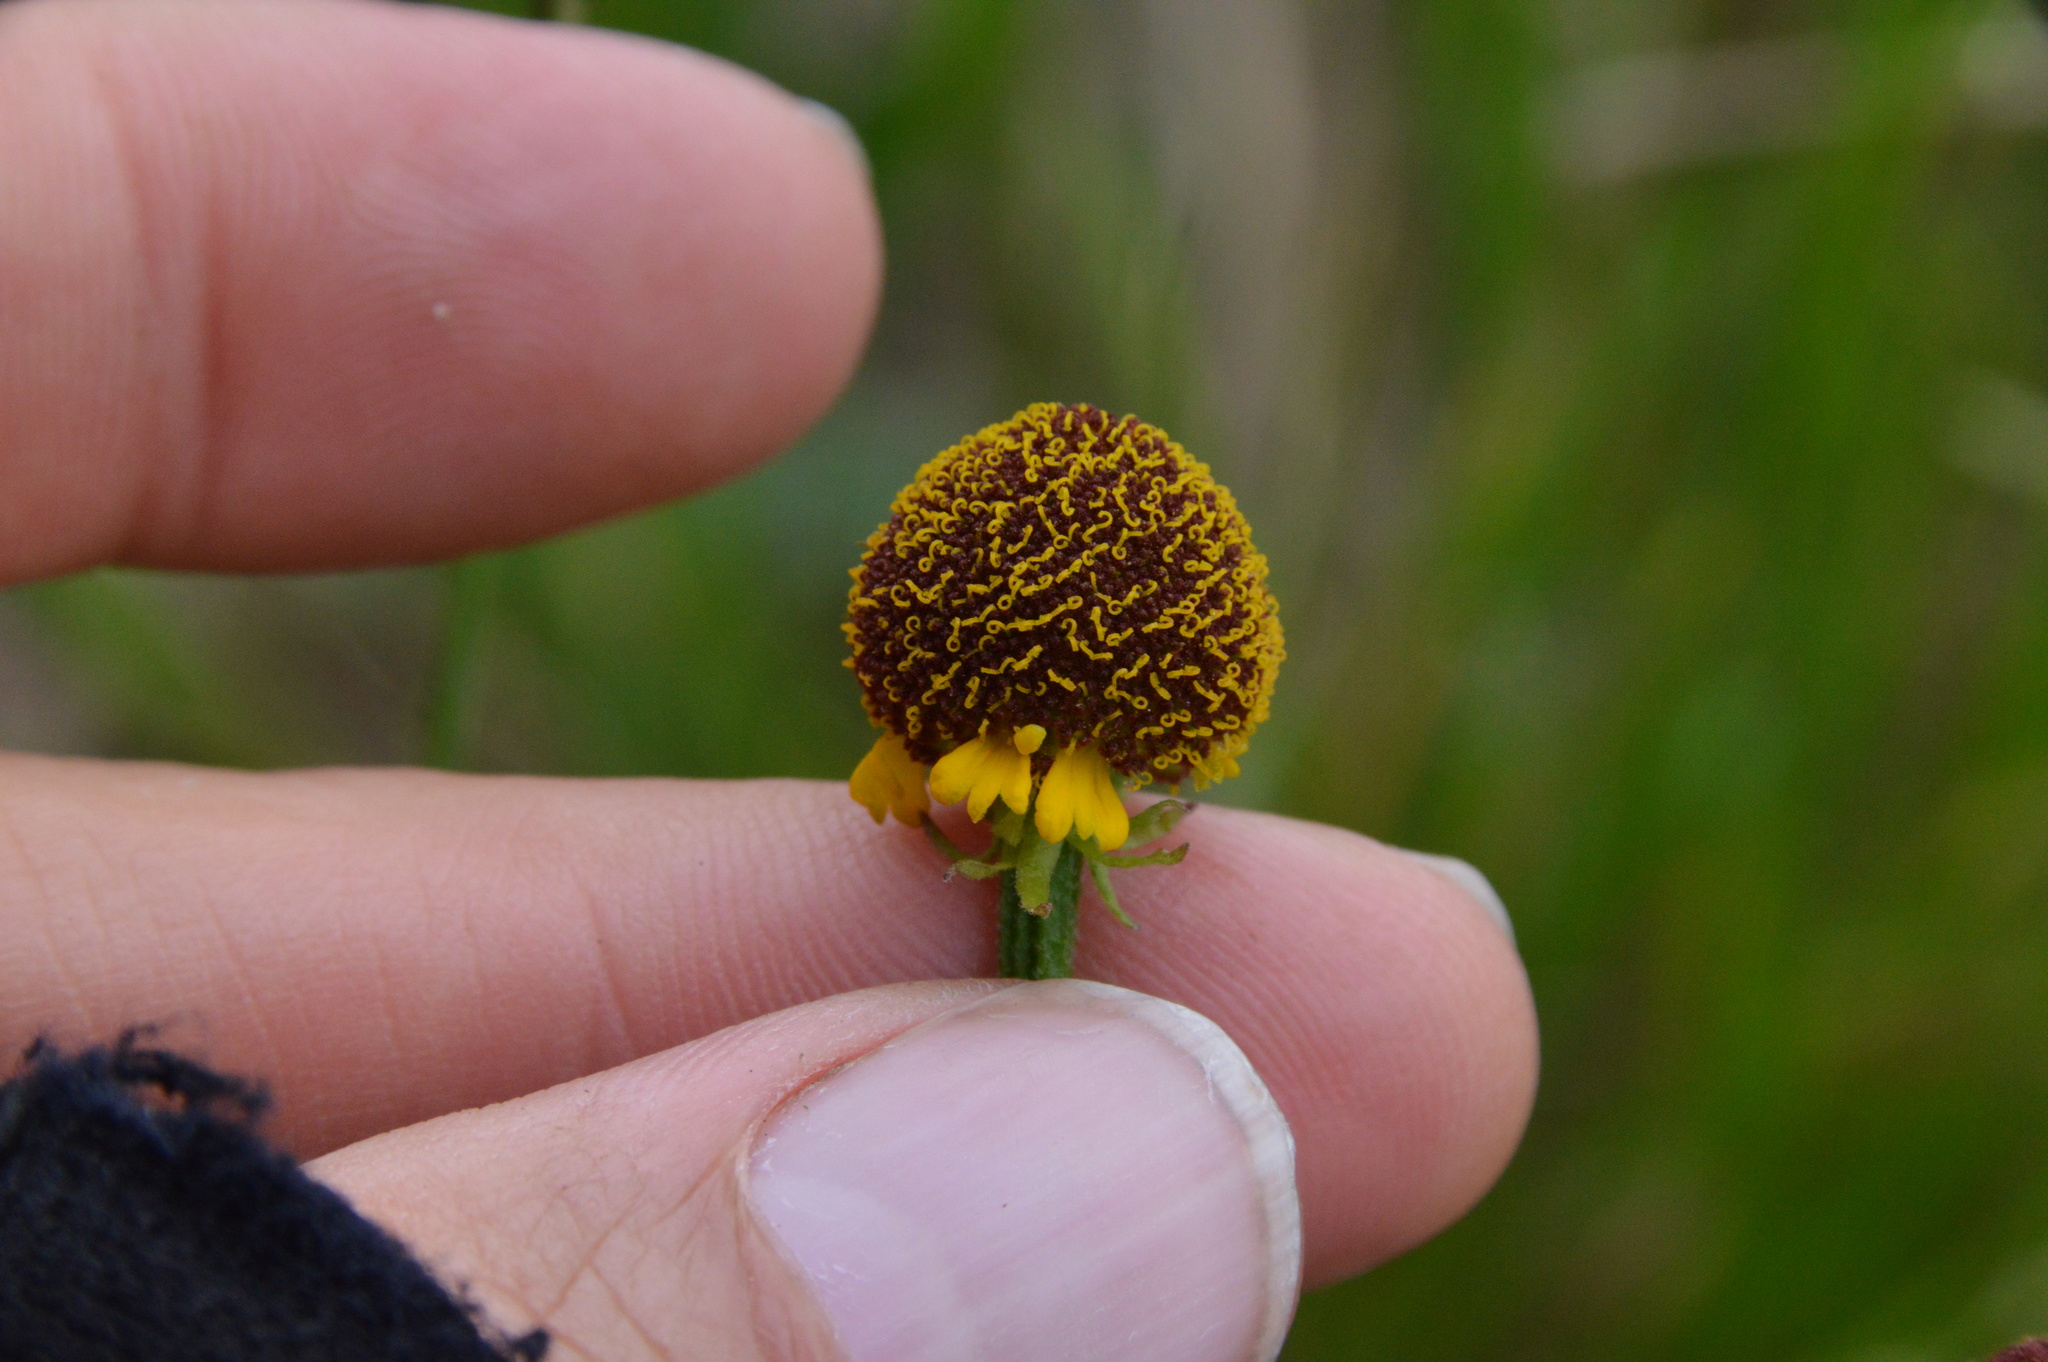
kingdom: Plantae
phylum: Tracheophyta
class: Magnoliopsida
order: Asterales
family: Asteraceae
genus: Helenium
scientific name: Helenium flexuosum
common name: Naked-flowered sneezeweed
